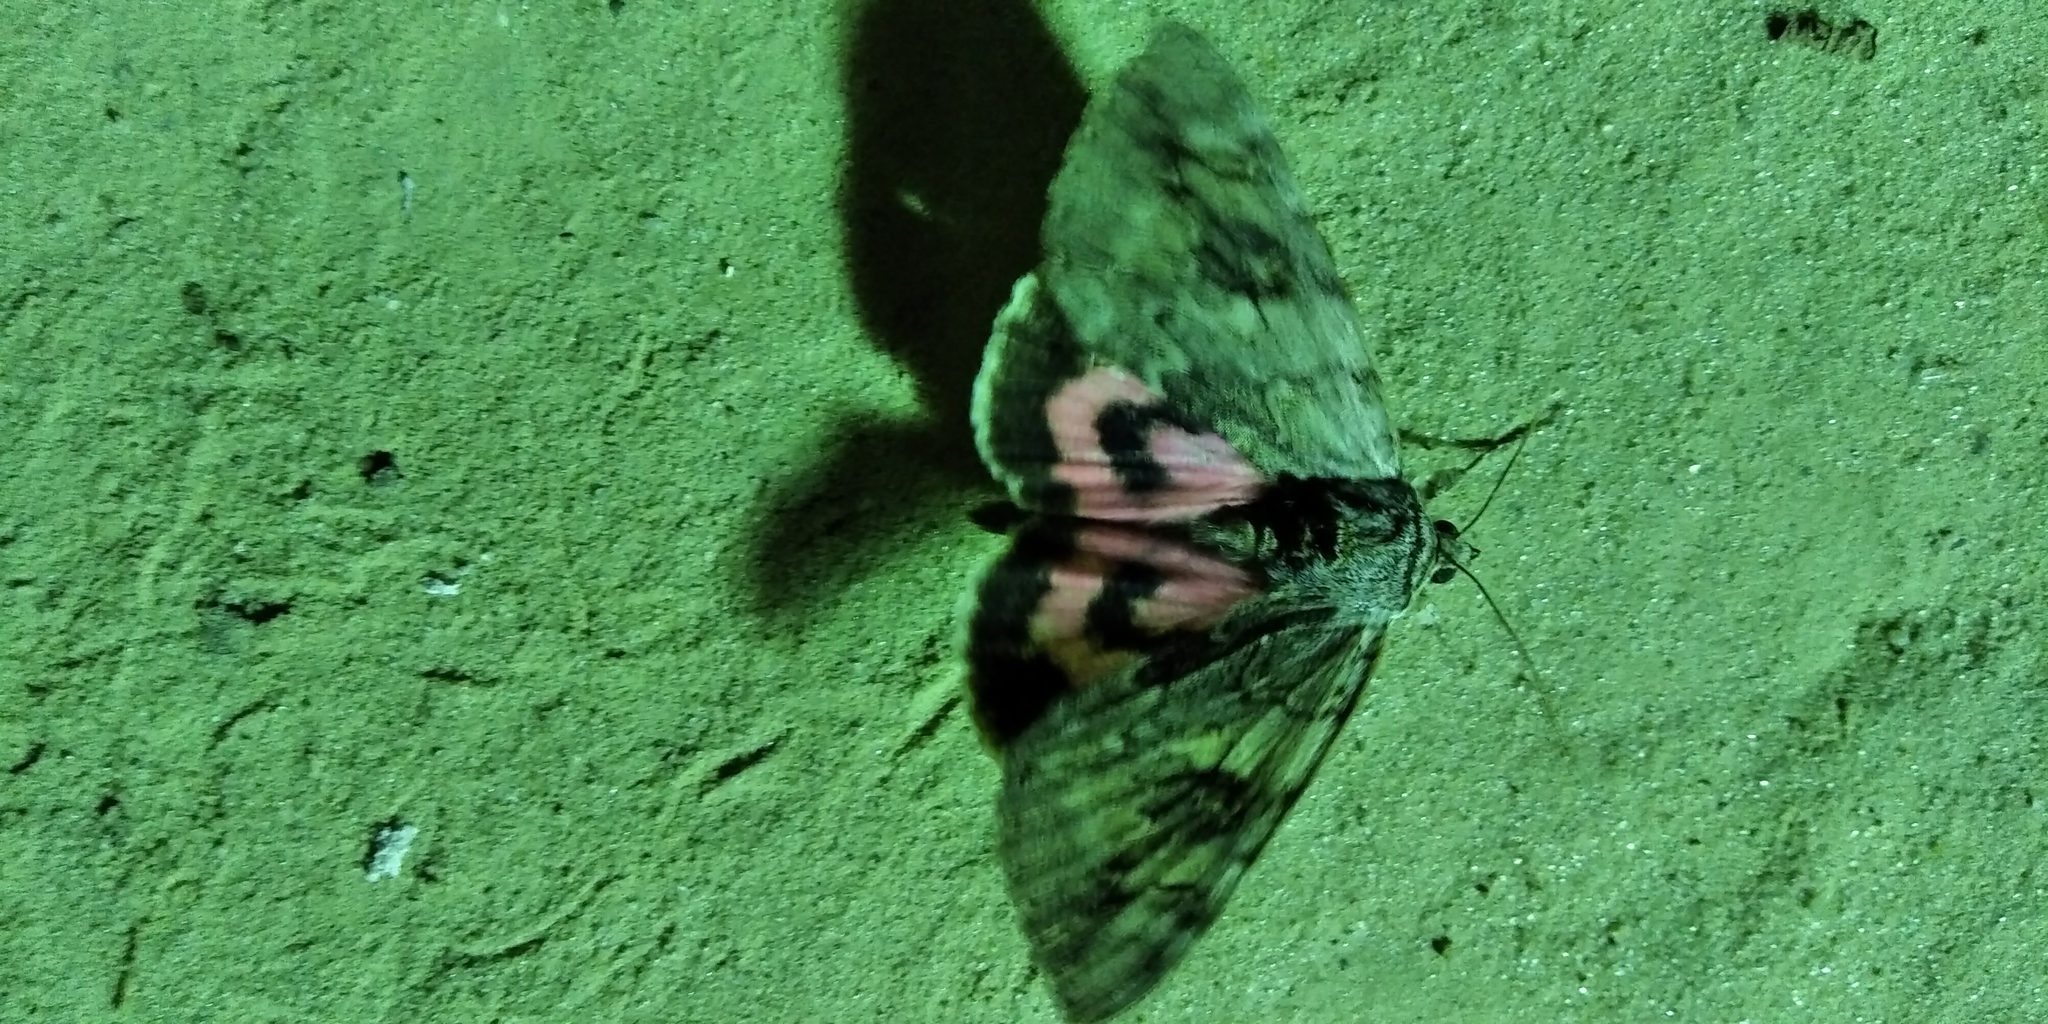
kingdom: Animalia
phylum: Arthropoda
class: Insecta
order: Lepidoptera
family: Erebidae
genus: Catocala
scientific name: Catocala electa
